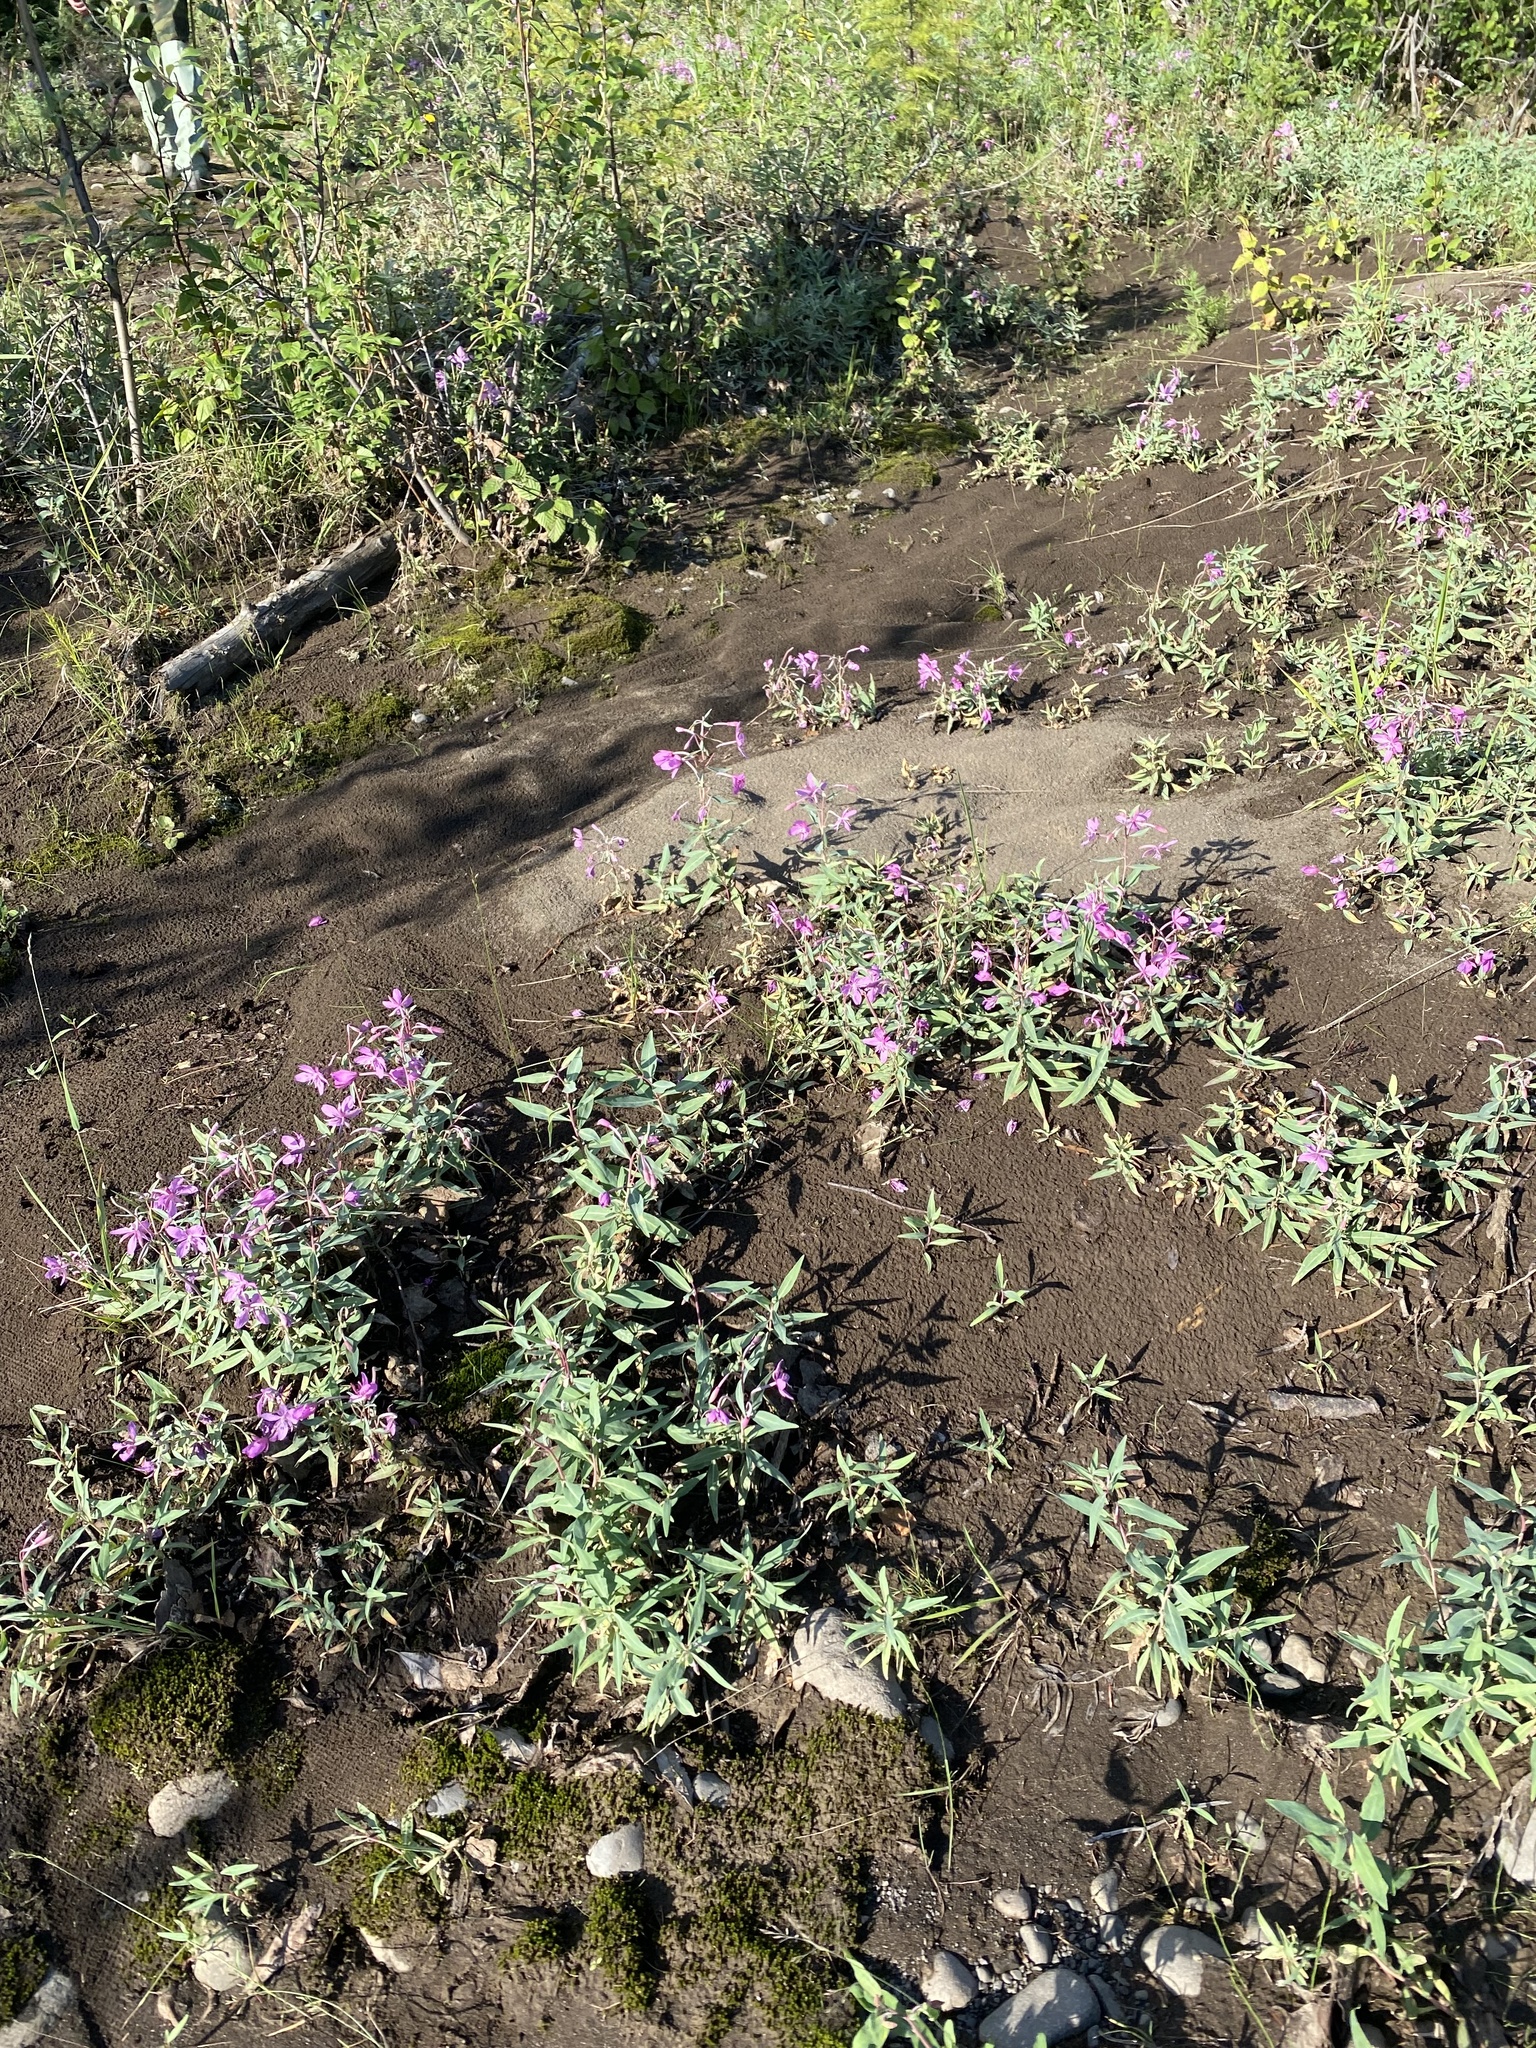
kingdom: Plantae
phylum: Tracheophyta
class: Magnoliopsida
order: Myrtales
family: Onagraceae
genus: Chamaenerion
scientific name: Chamaenerion latifolium
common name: Dwarf fireweed
